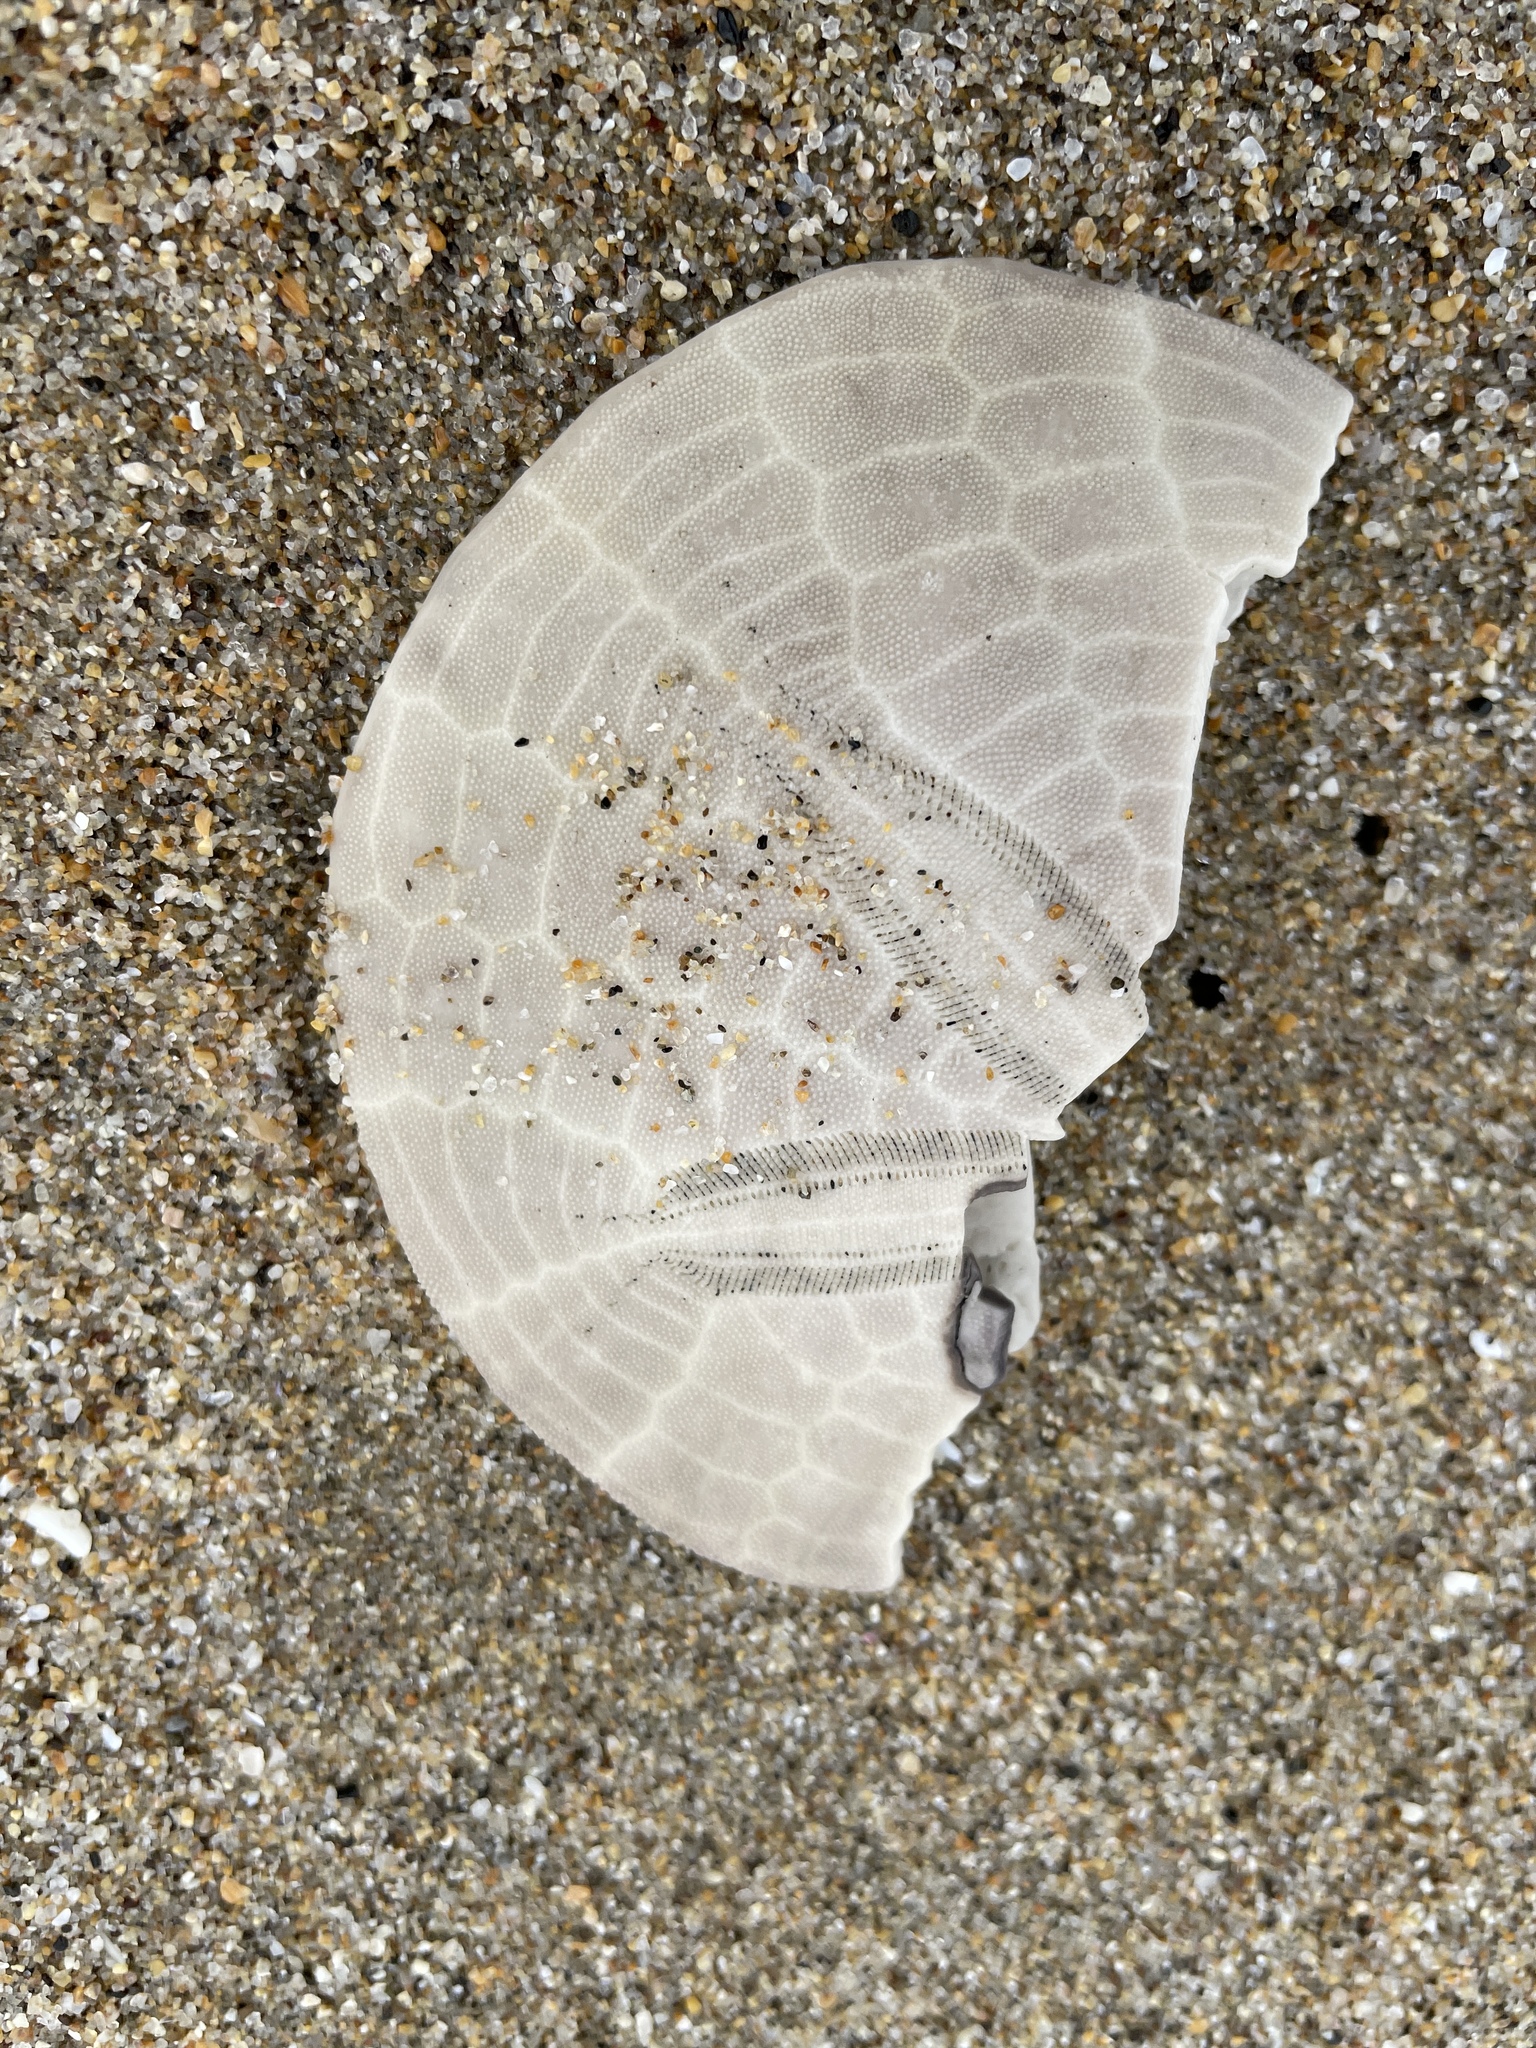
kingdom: Animalia
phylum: Echinodermata
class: Echinoidea
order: Echinolampadacea
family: Dendrasteridae
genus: Dendraster
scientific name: Dendraster excentricus
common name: Eccentric sand dollar sea urchin
